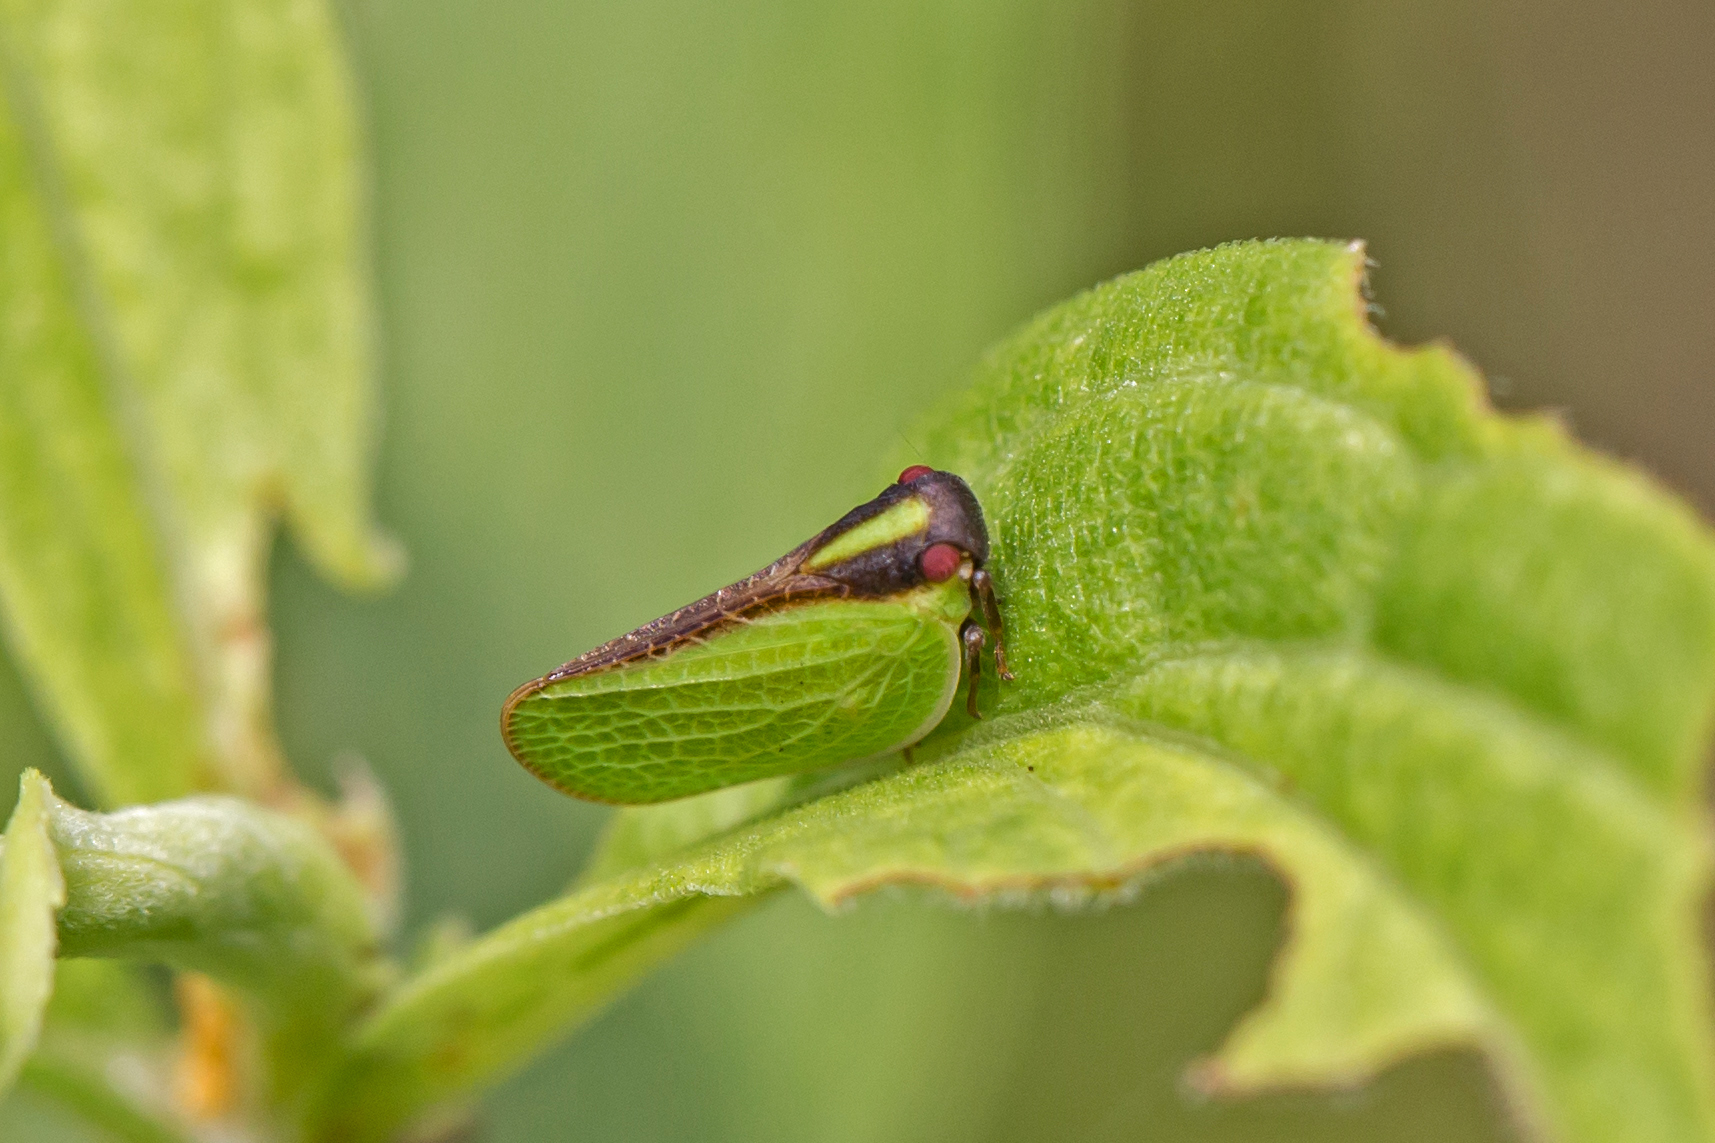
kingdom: Animalia
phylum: Arthropoda
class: Insecta
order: Hemiptera
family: Acanaloniidae
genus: Acanalonia
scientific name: Acanalonia bivittata
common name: Two-striped planthopper
